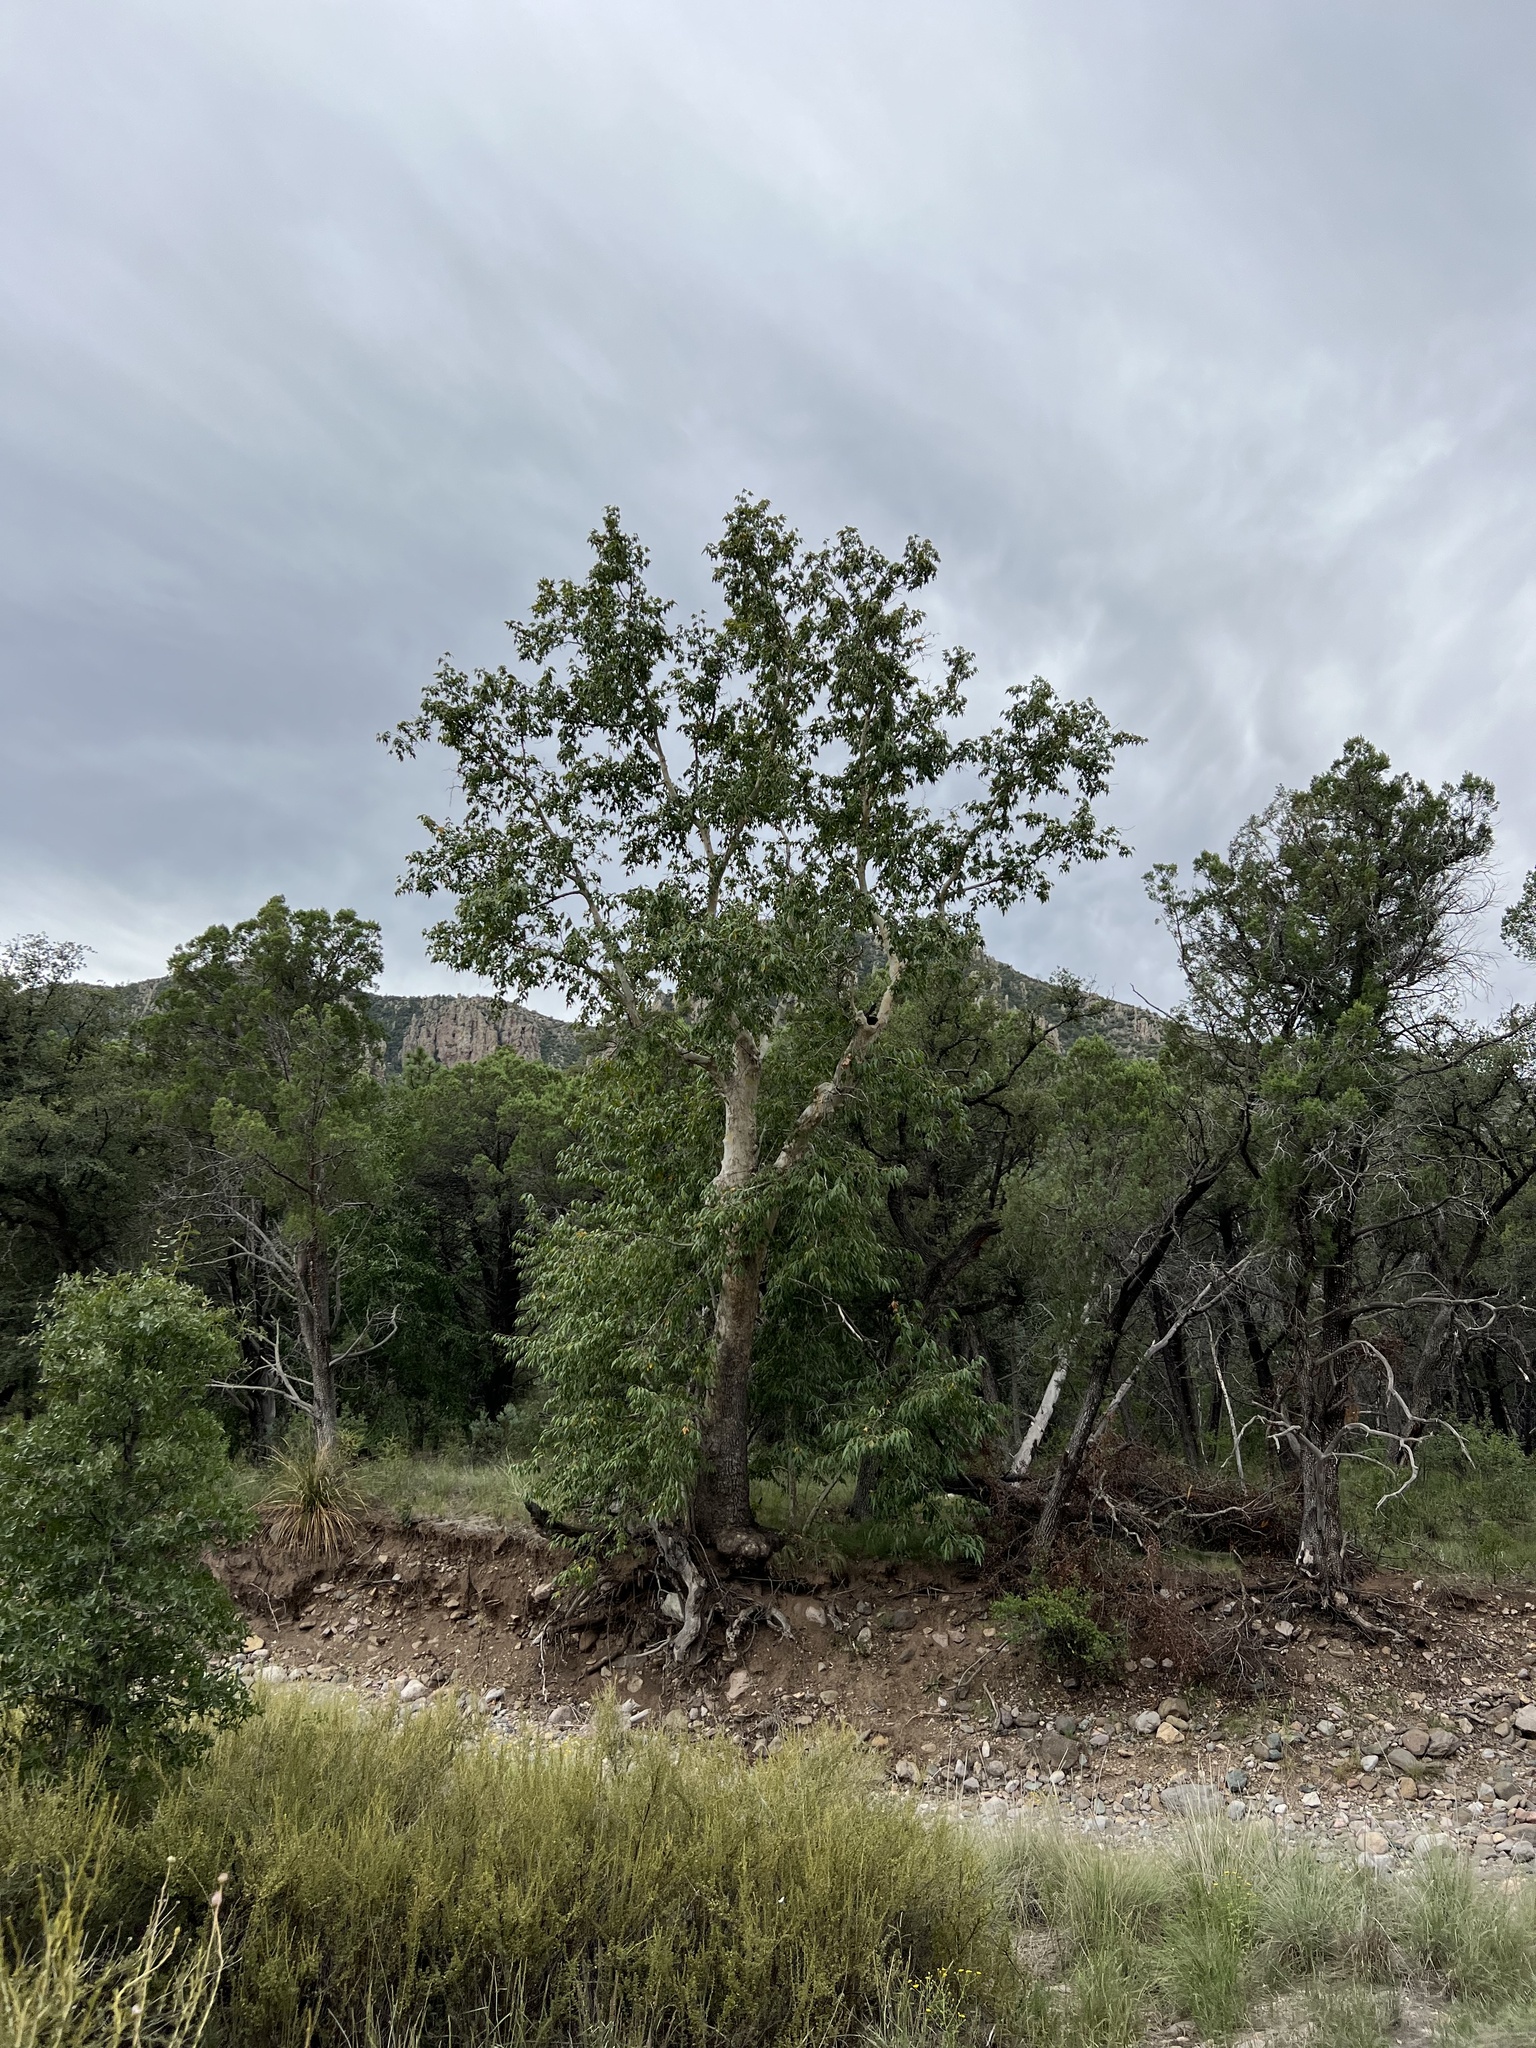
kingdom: Plantae
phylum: Tracheophyta
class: Magnoliopsida
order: Proteales
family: Platanaceae
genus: Platanus
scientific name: Platanus wrightii
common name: Arizona sycamore
